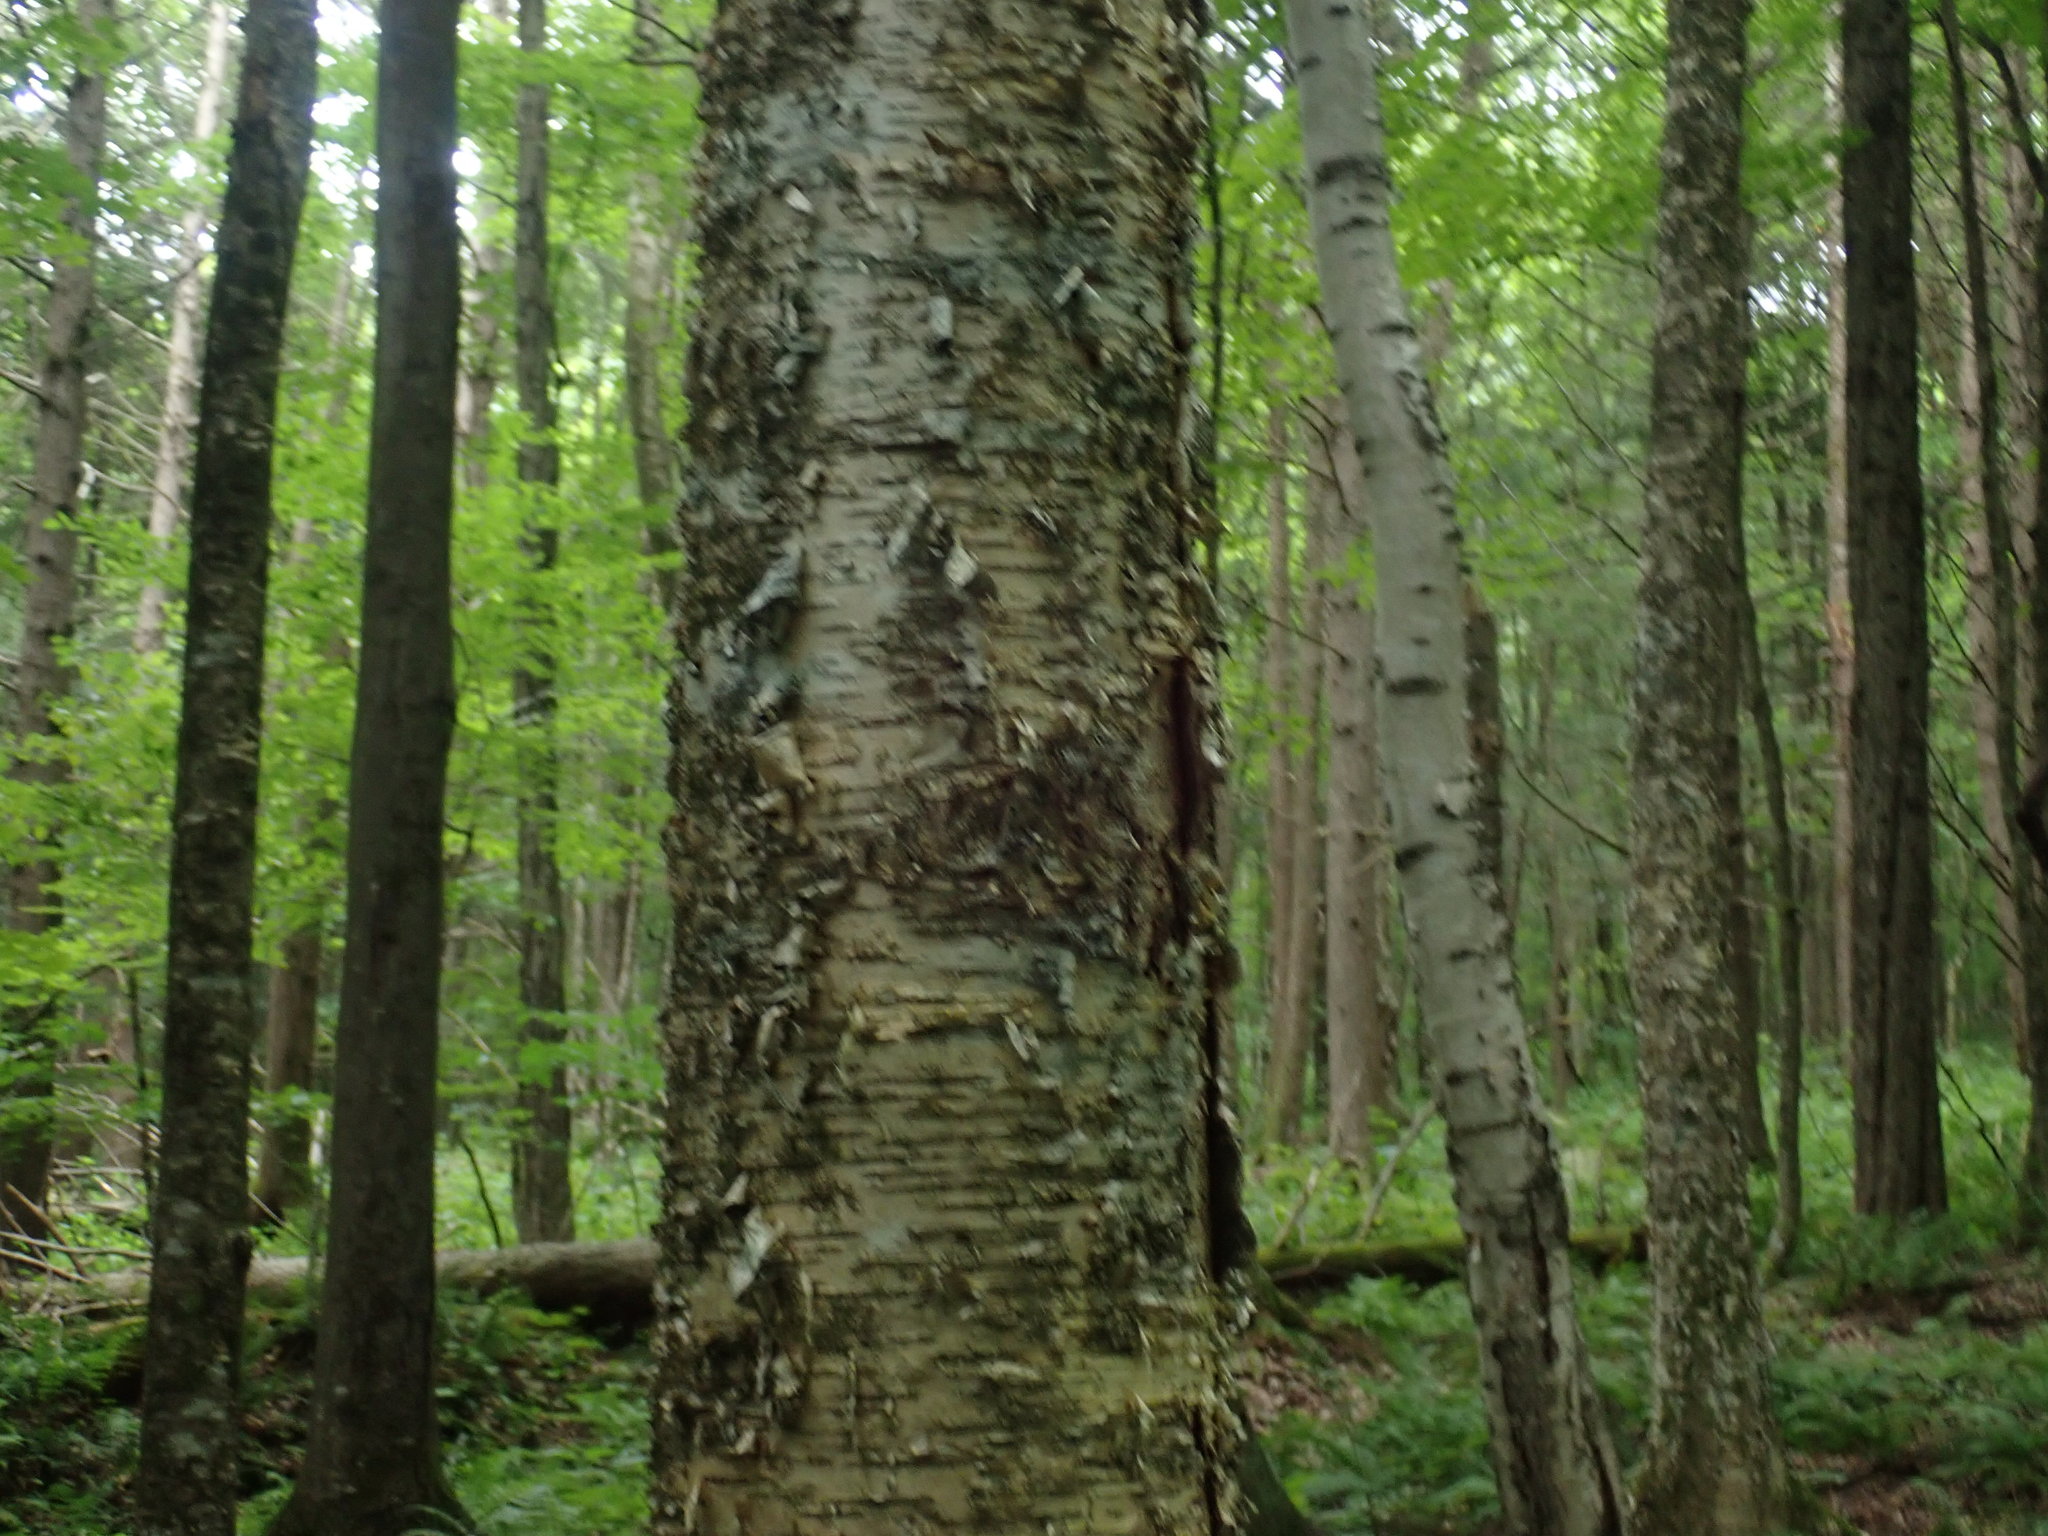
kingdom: Plantae
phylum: Tracheophyta
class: Magnoliopsida
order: Fagales
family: Betulaceae
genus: Betula
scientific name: Betula alleghaniensis
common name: Yellow birch
